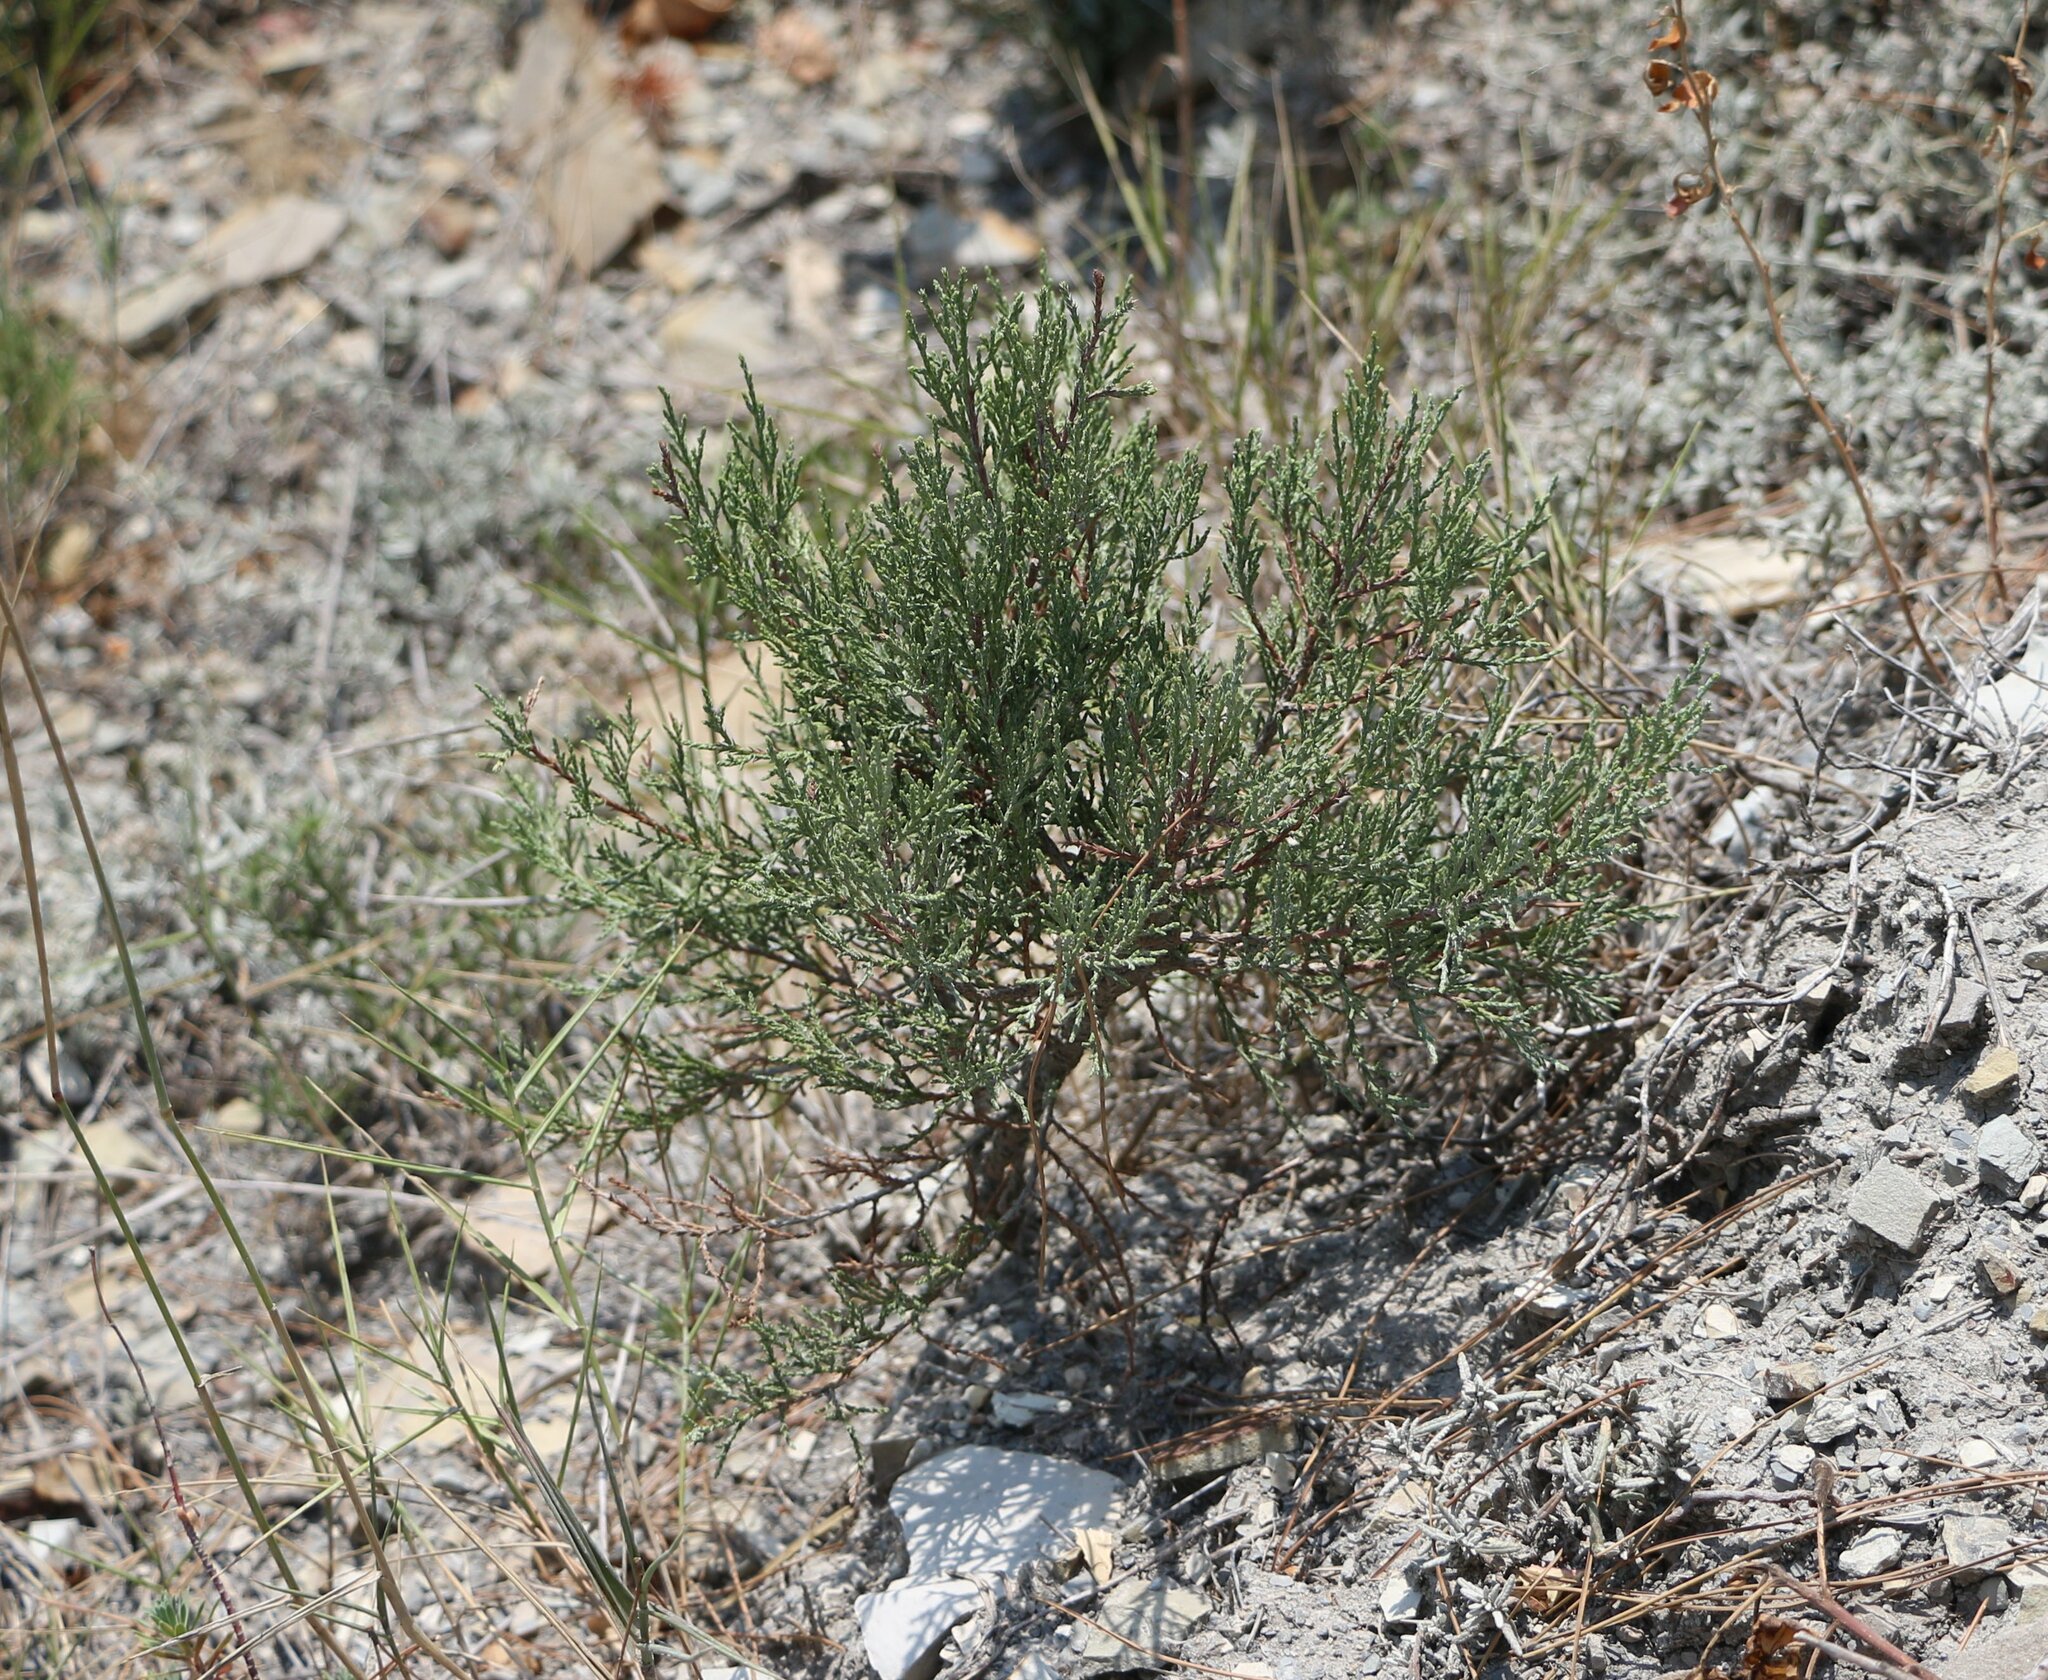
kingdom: Plantae
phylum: Tracheophyta
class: Pinopsida
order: Pinales
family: Cupressaceae
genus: Juniperus
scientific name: Juniperus excelsa
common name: Crimean juniper
